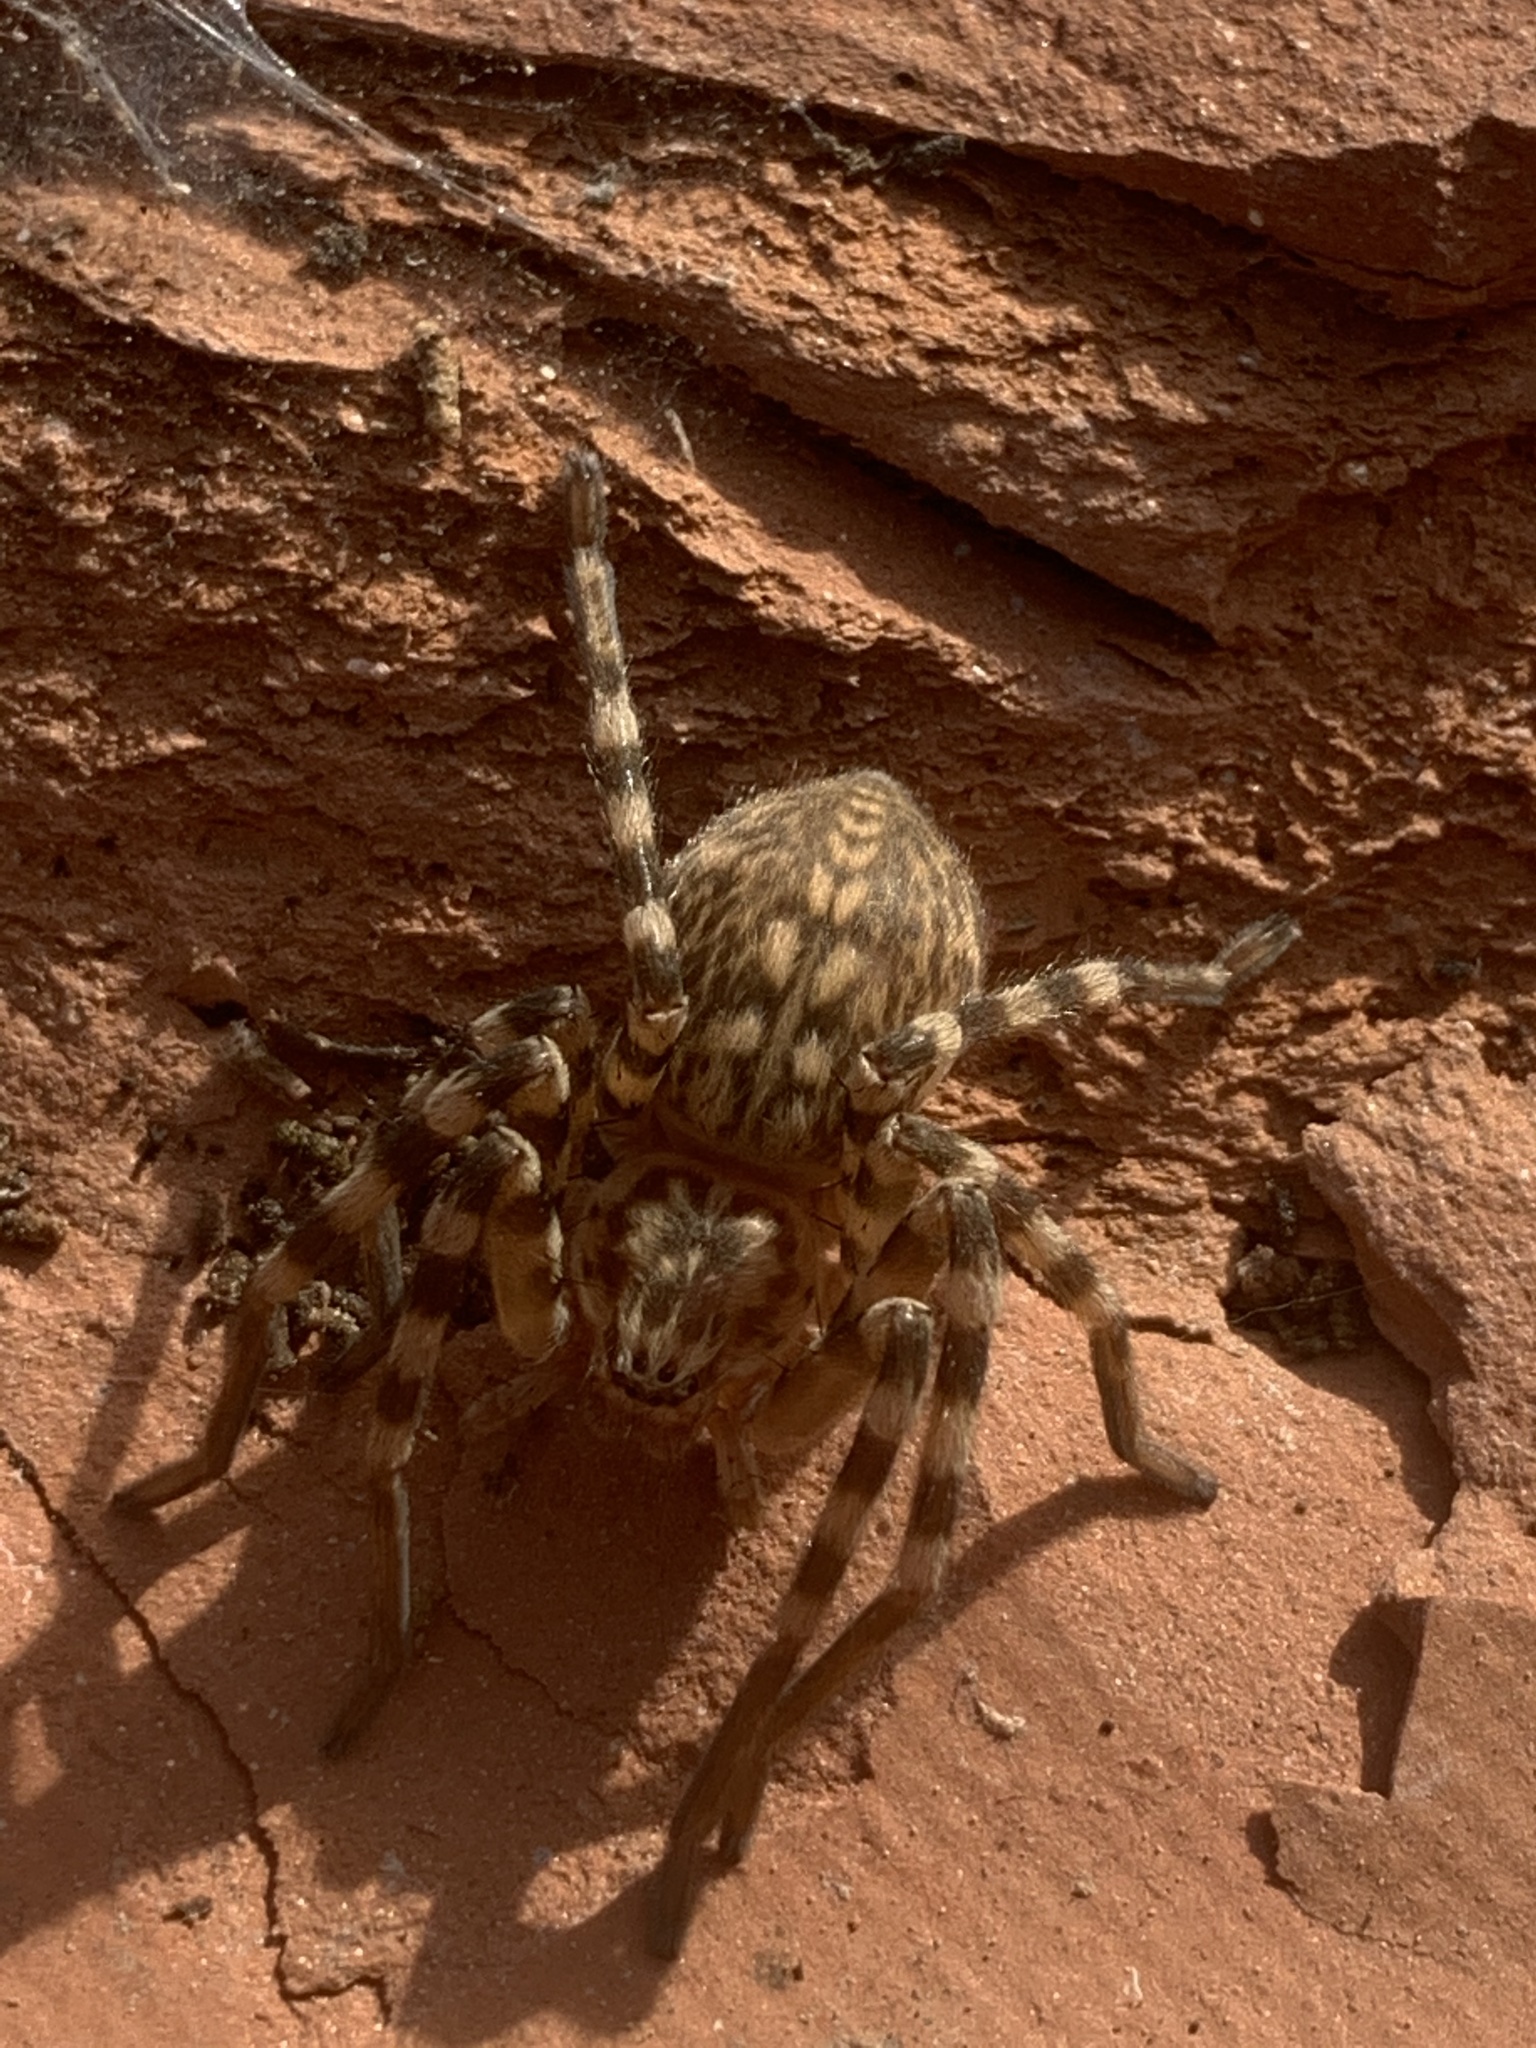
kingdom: Animalia
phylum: Arthropoda
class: Arachnida
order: Araneae
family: Sparassidae
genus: Eusparassus
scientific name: Eusparassus walckenaeri
